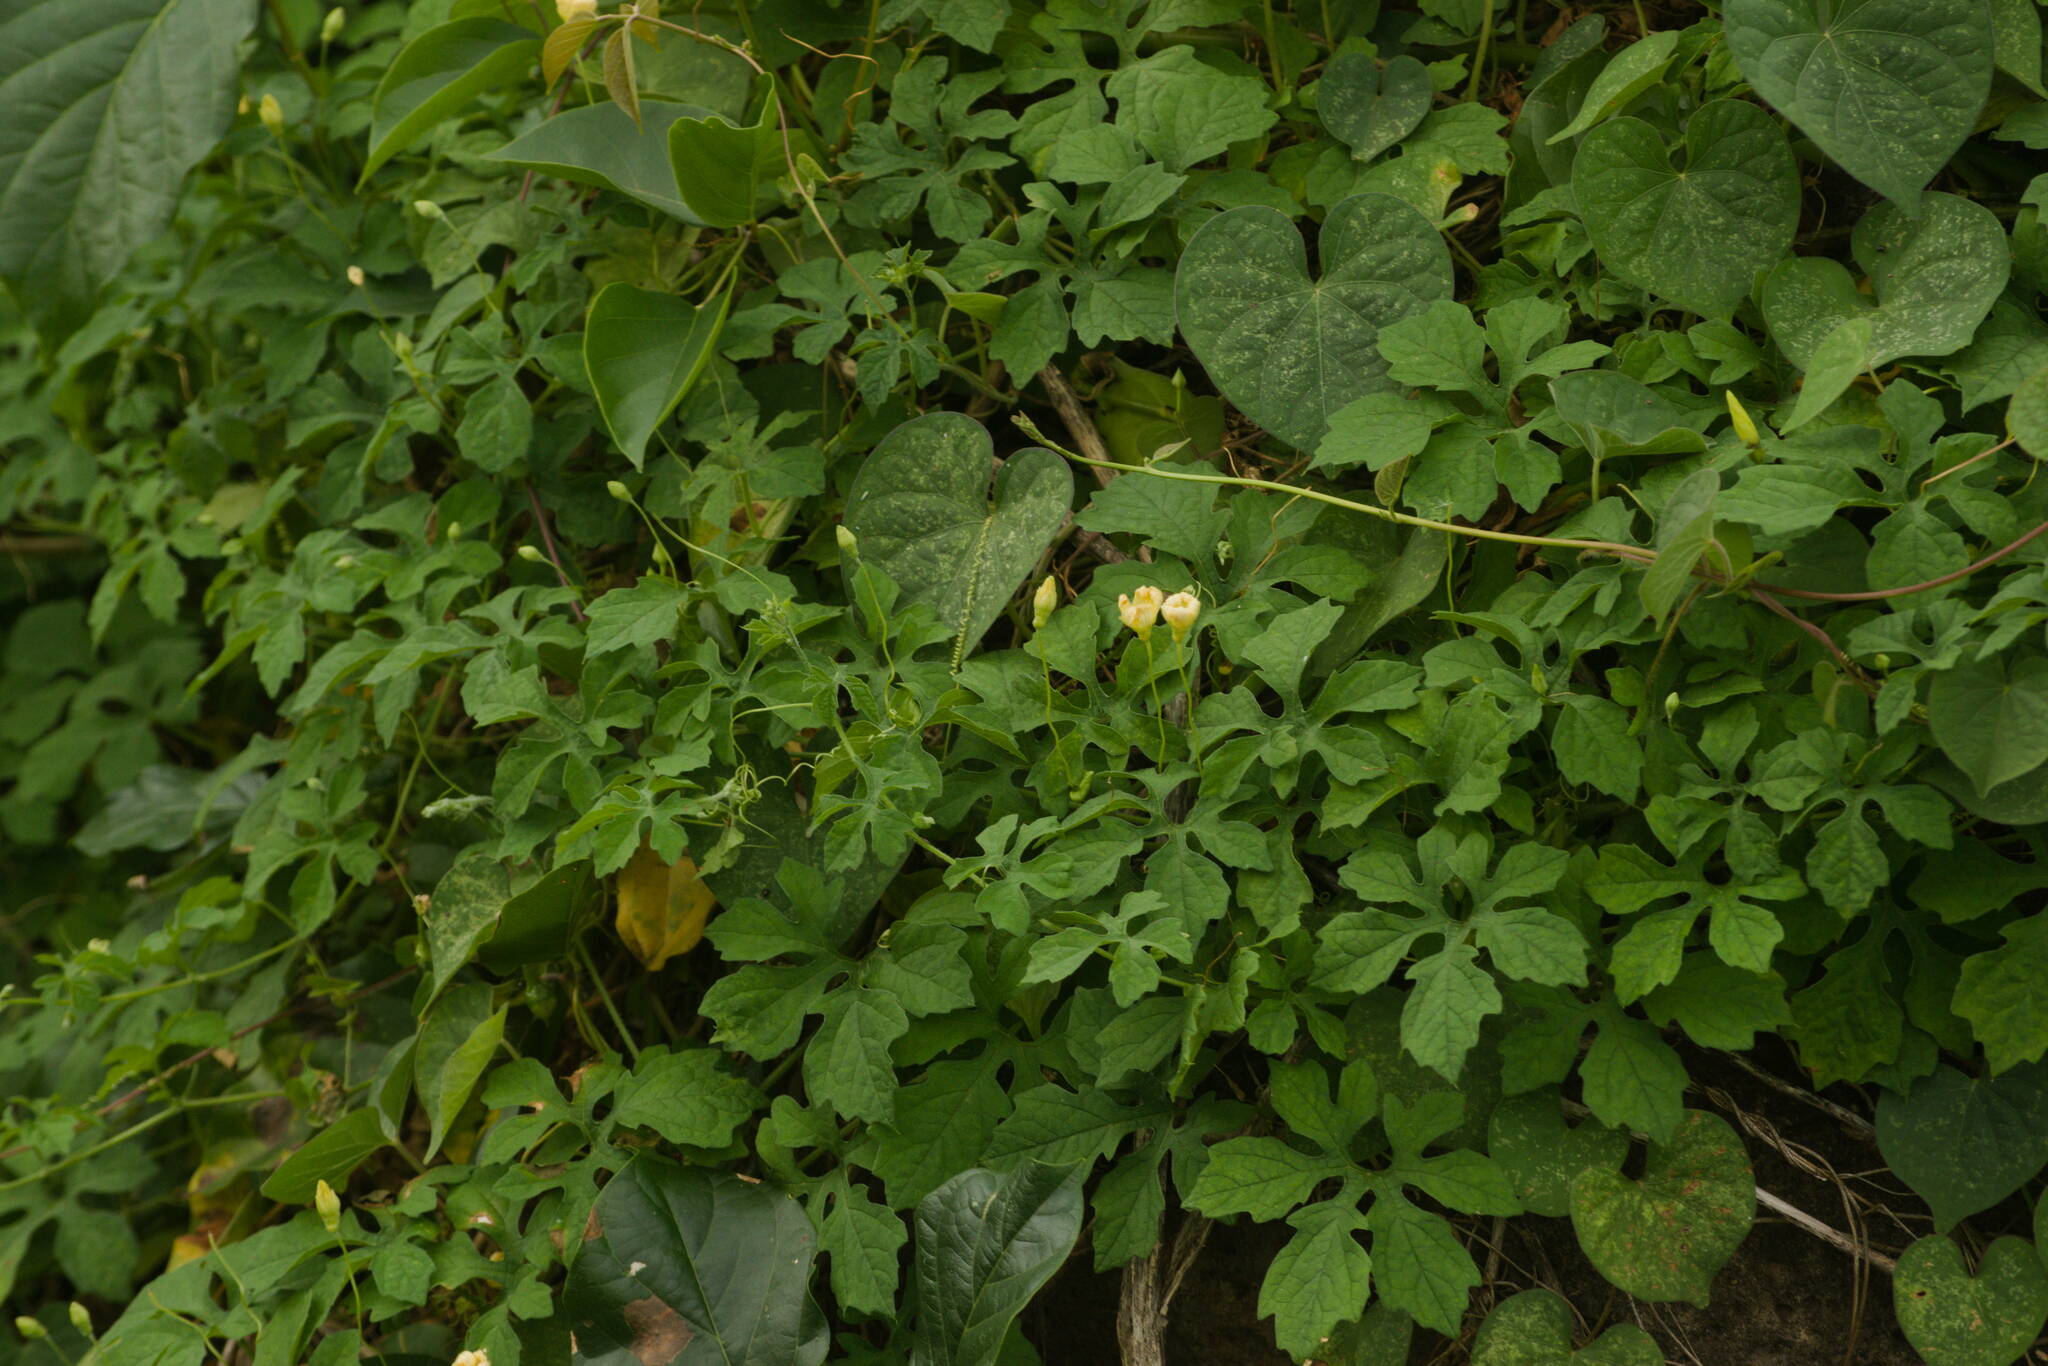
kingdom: Plantae
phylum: Tracheophyta
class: Magnoliopsida
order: Cucurbitales
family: Cucurbitaceae
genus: Momordica
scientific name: Momordica charantia
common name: Balsampear
